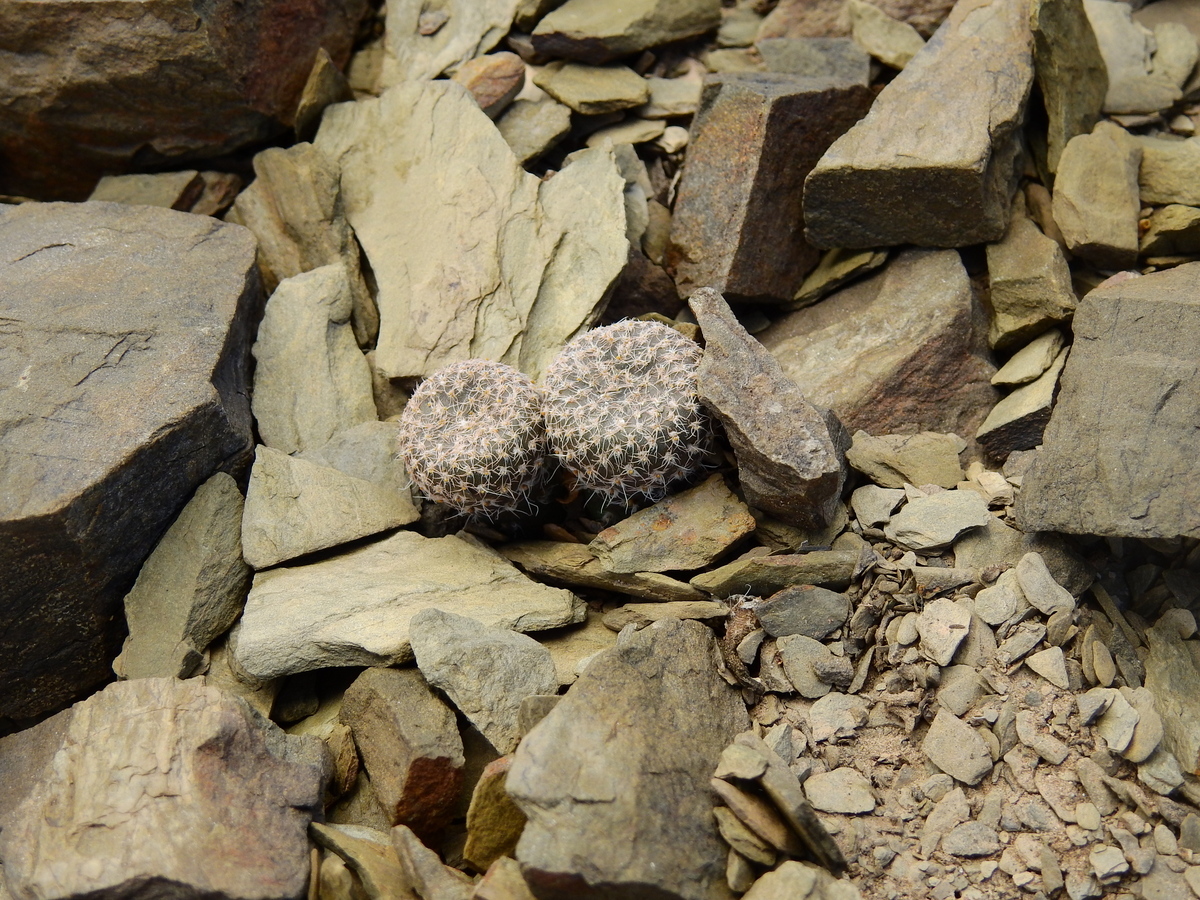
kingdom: Plantae
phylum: Tracheophyta
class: Magnoliopsida
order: Caryophyllales
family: Cactaceae
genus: Puna
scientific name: Puna clavarioides
